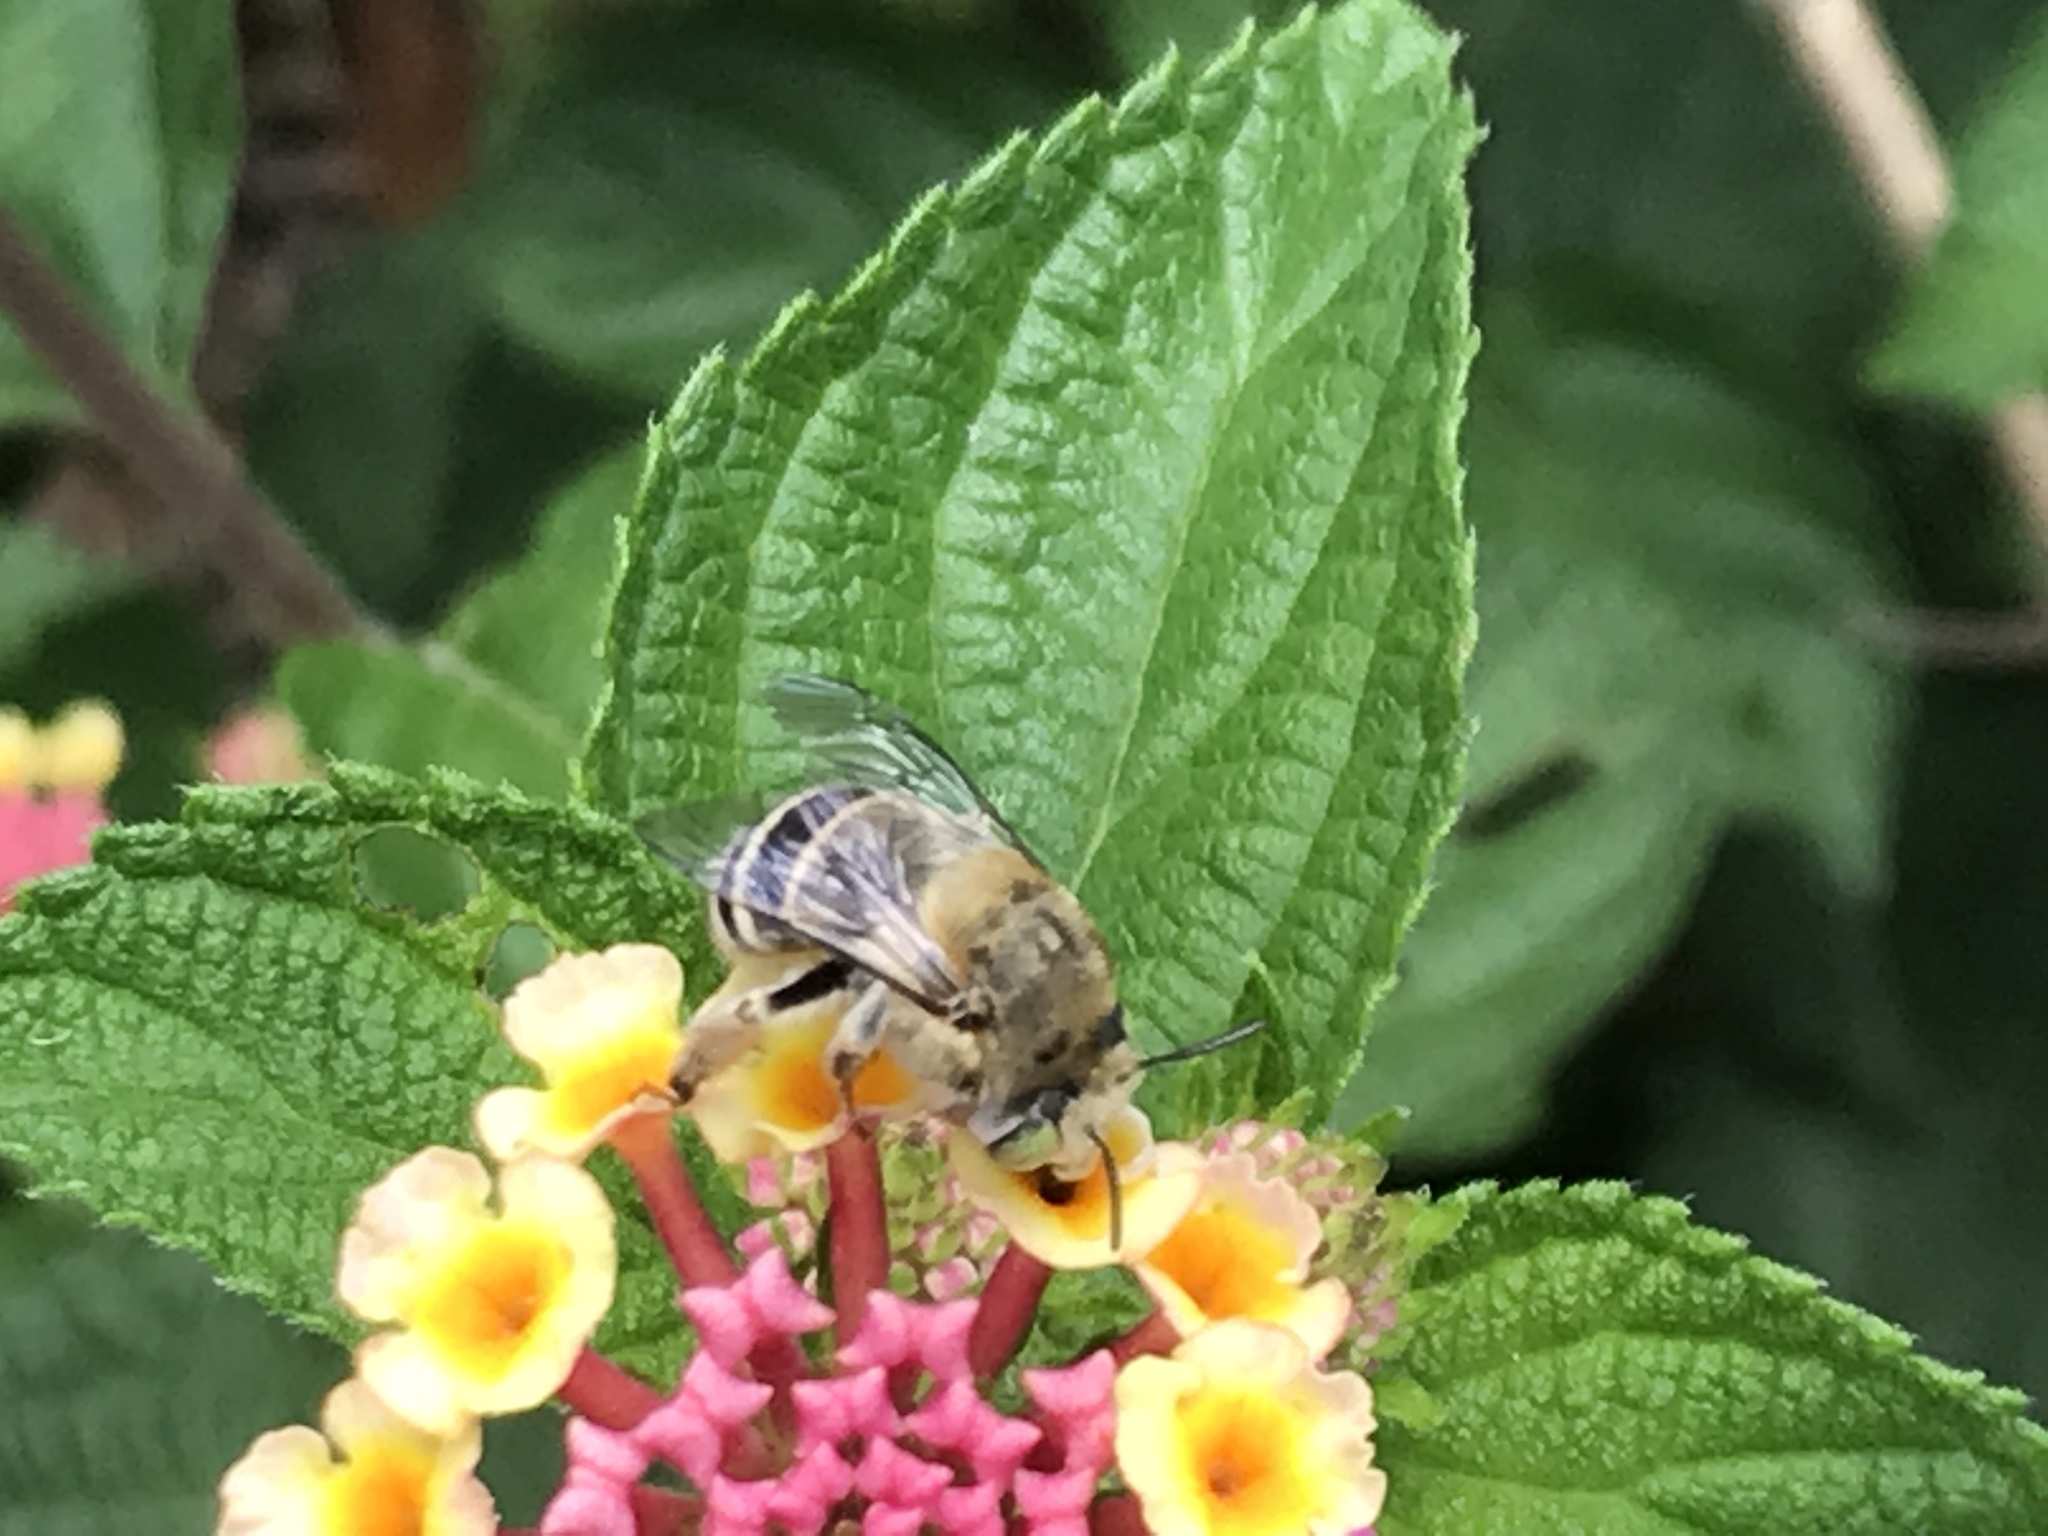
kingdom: Animalia
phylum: Arthropoda
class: Insecta
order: Hymenoptera
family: Apidae
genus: Anthophora
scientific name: Anthophora californica
